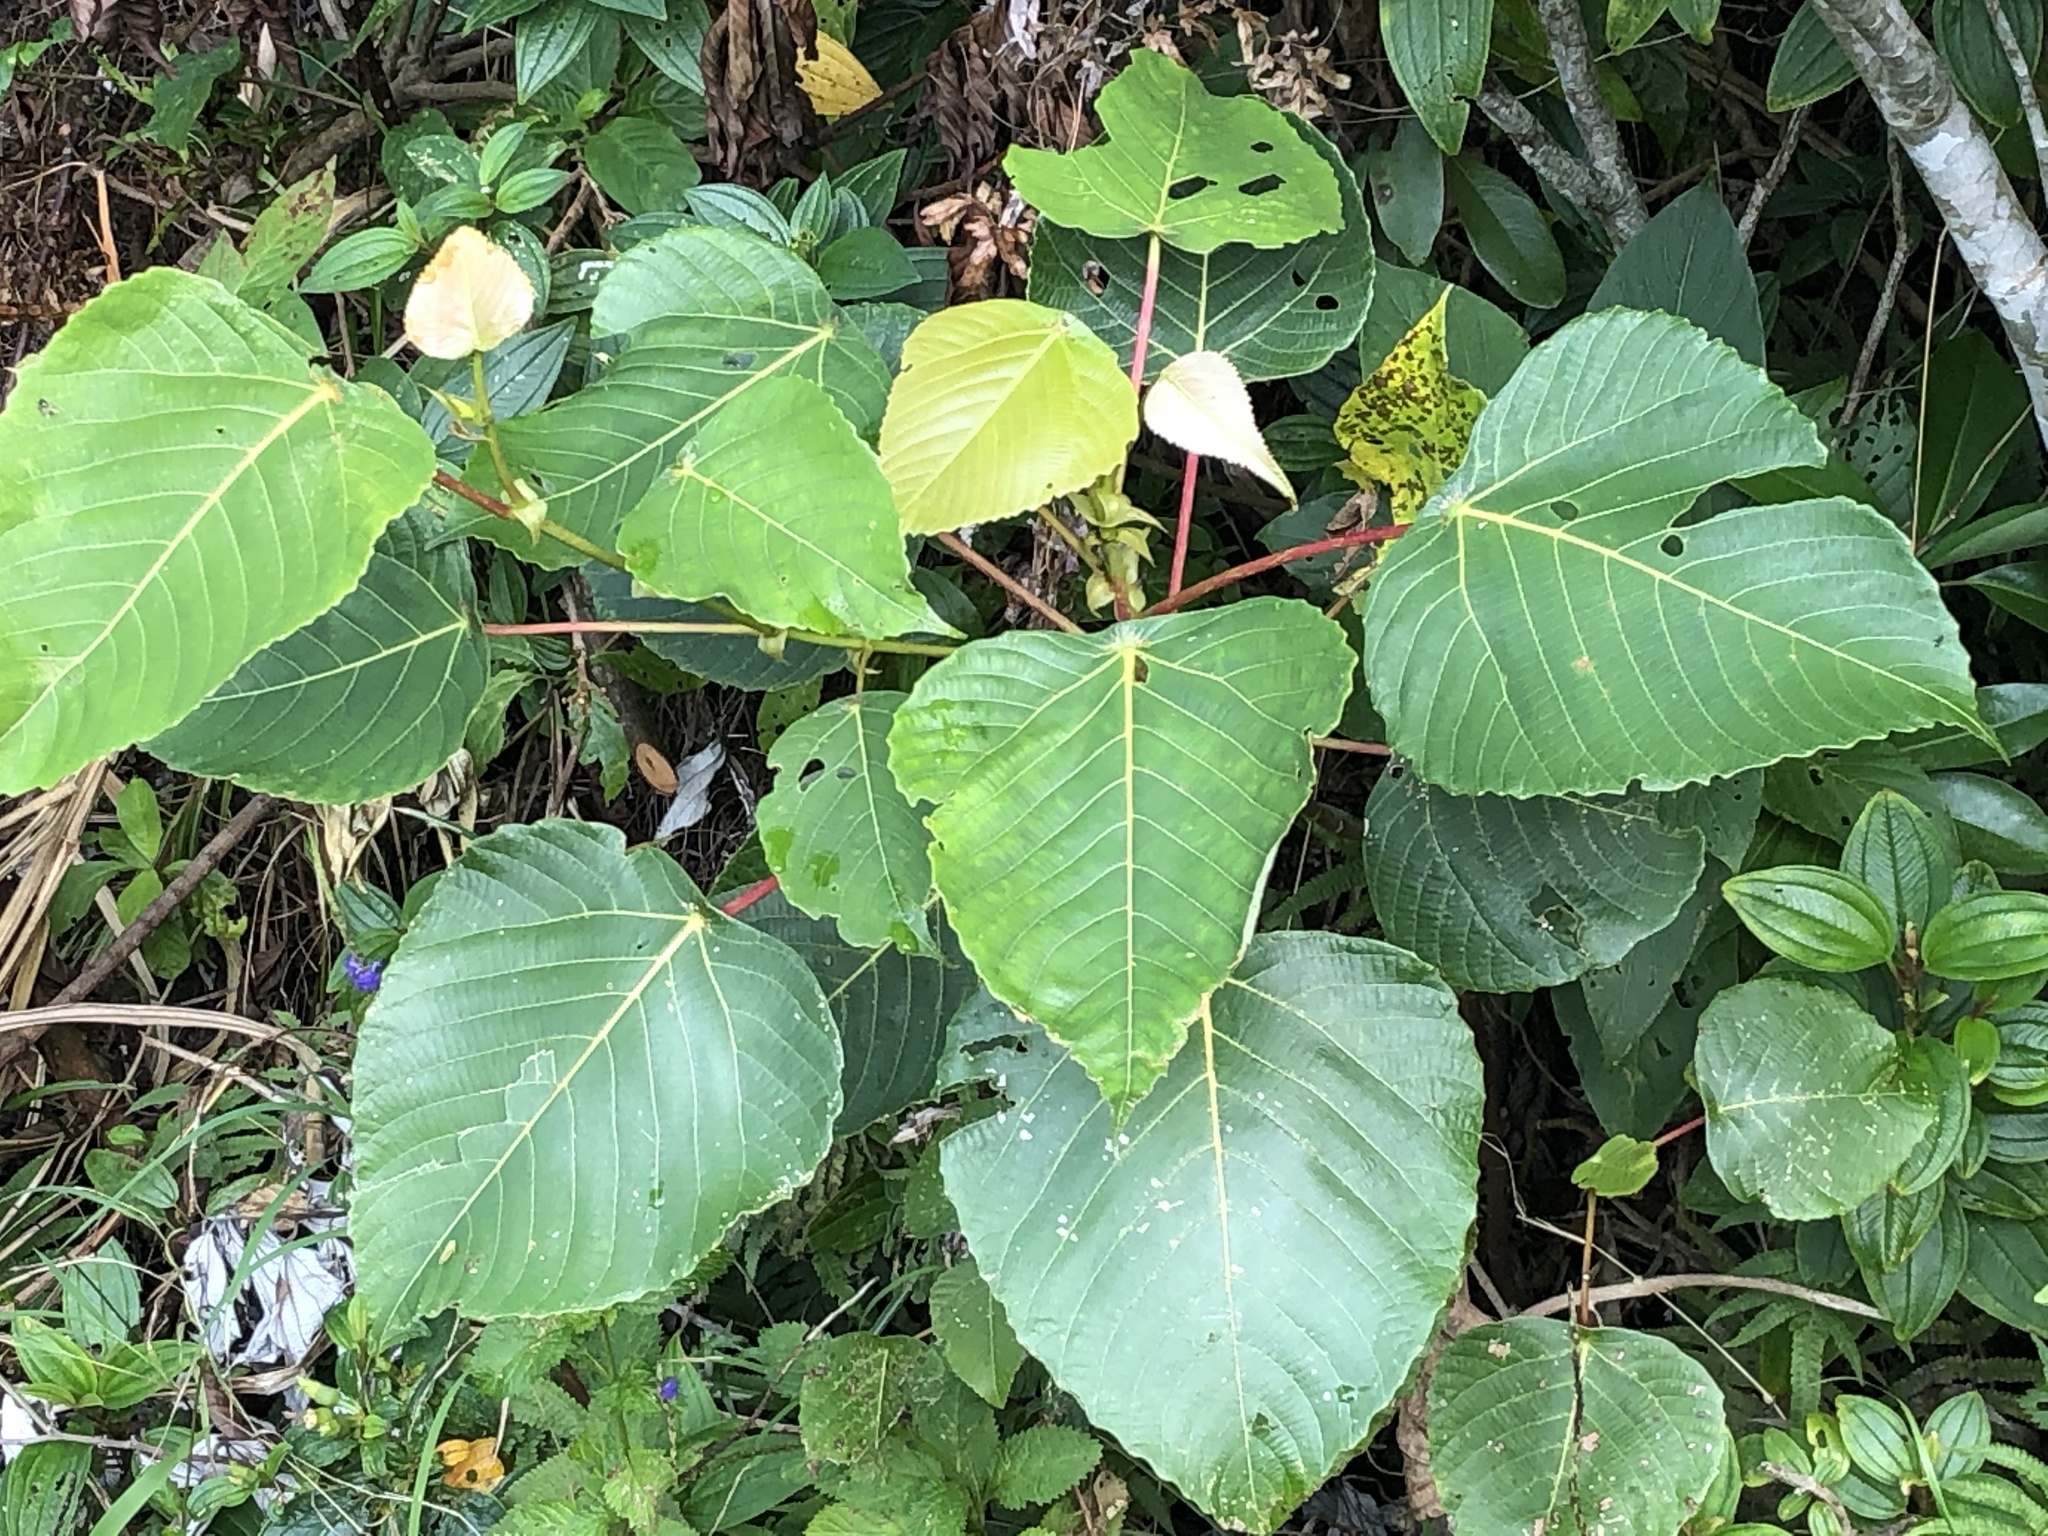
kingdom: Plantae
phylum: Tracheophyta
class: Magnoliopsida
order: Malpighiales
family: Euphorbiaceae
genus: Macaranga
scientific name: Macaranga sinensis
